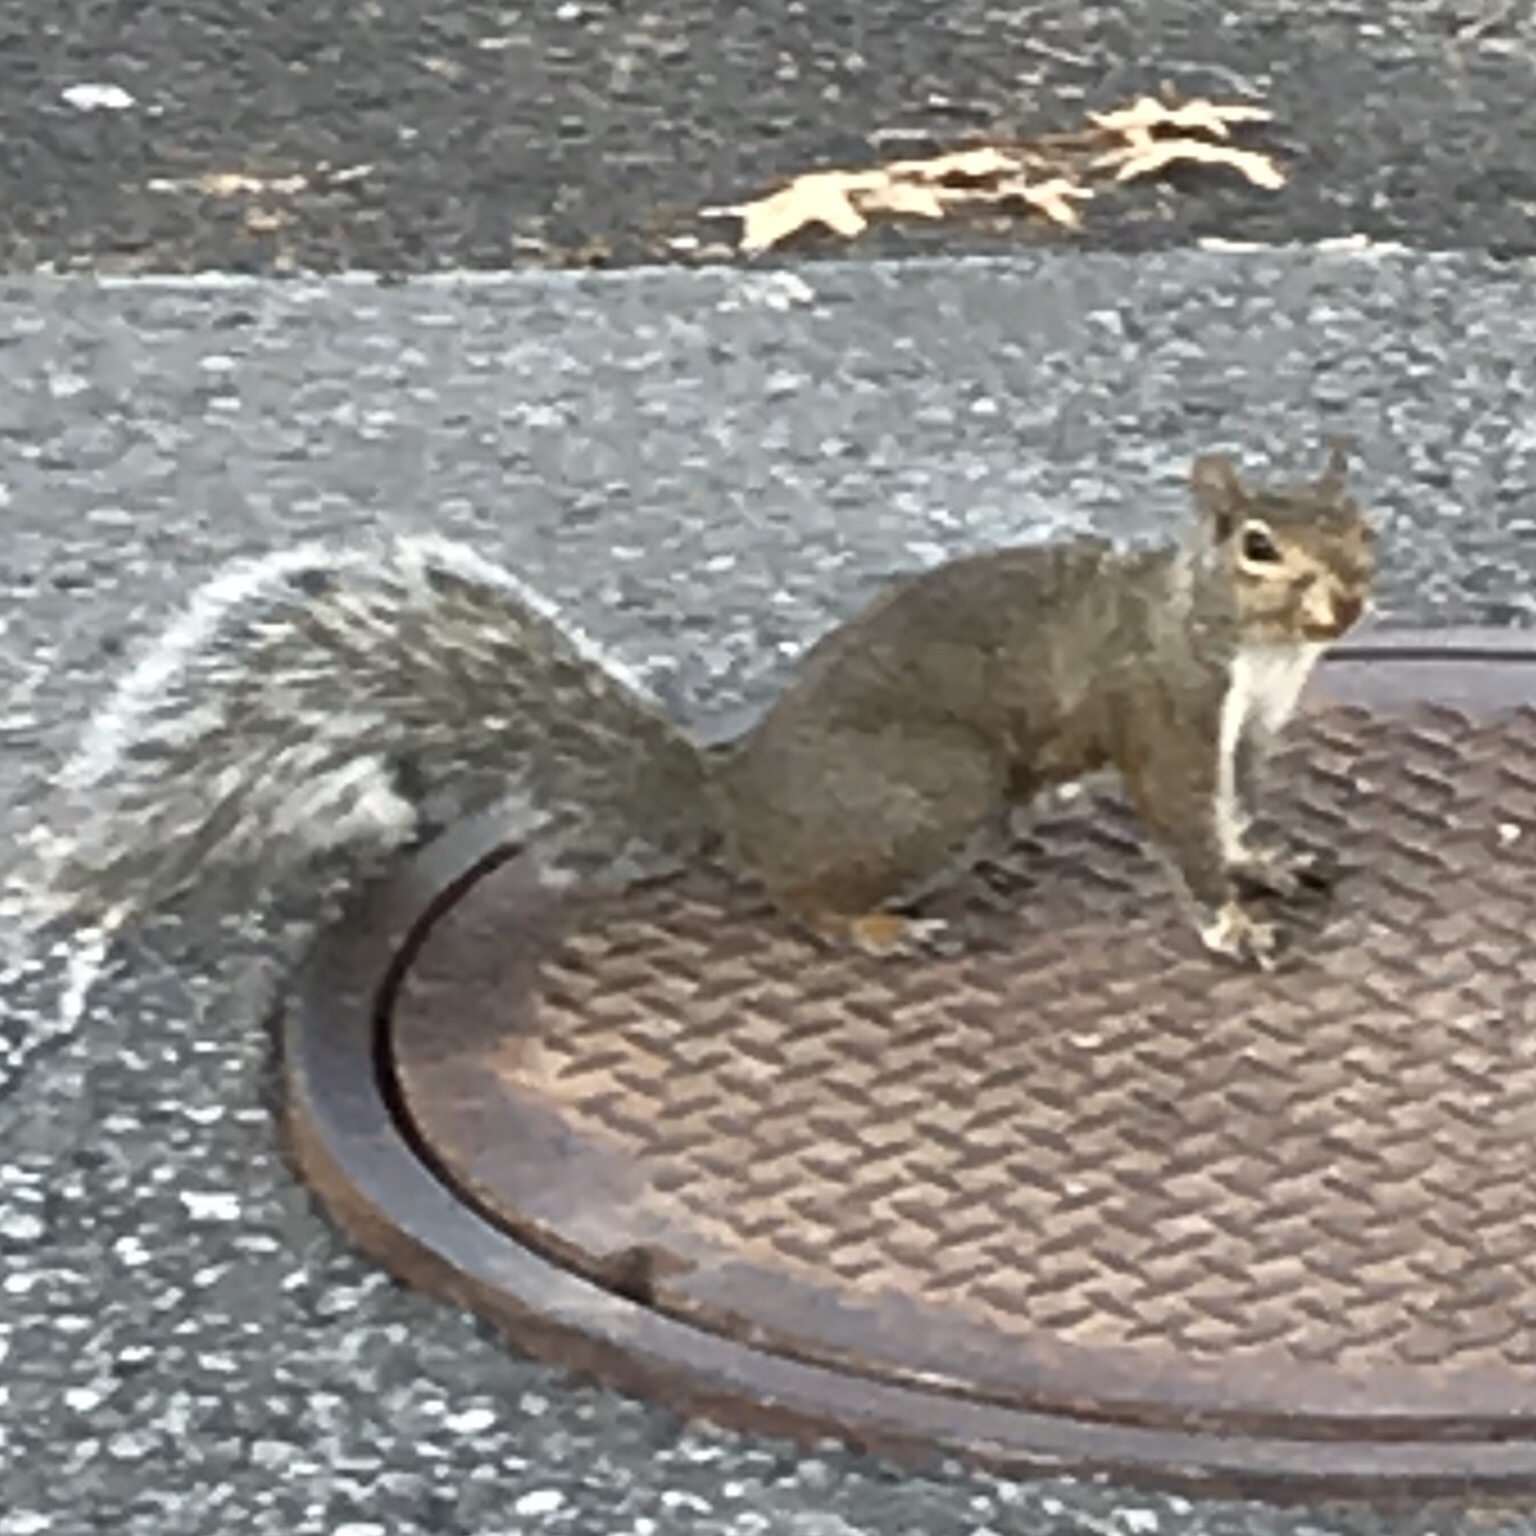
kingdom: Animalia
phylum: Chordata
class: Mammalia
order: Rodentia
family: Sciuridae
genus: Sciurus
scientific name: Sciurus carolinensis
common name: Eastern gray squirrel
